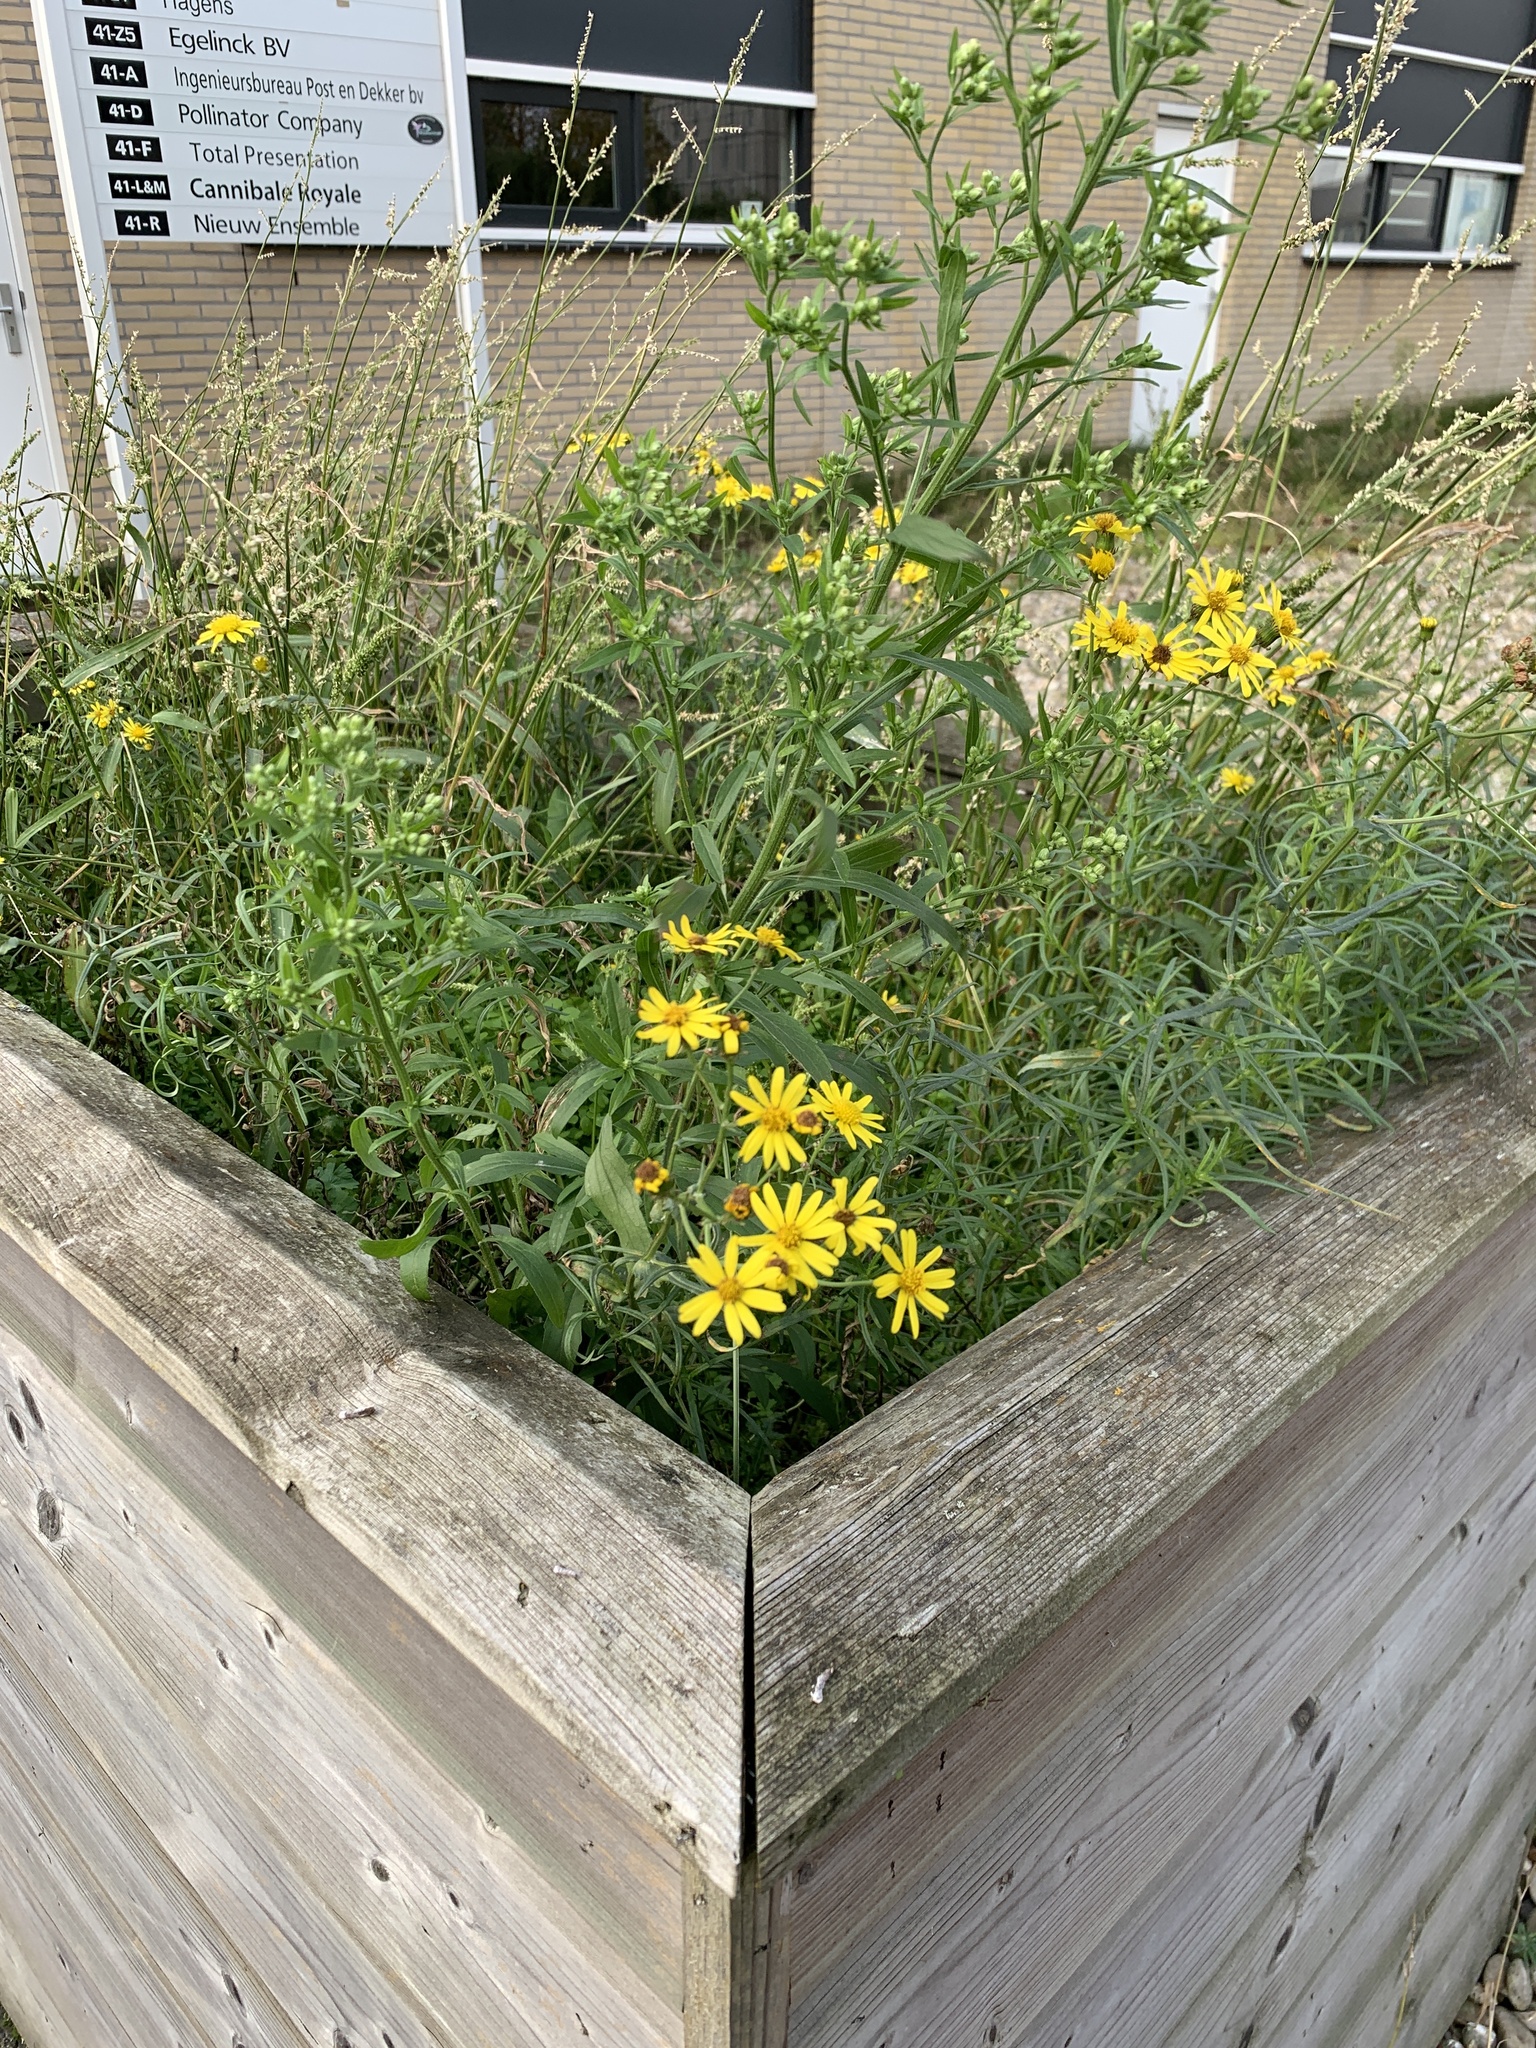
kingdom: Plantae
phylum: Tracheophyta
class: Magnoliopsida
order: Asterales
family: Asteraceae
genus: Senecio
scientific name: Senecio inaequidens
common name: Narrow-leaved ragwort
